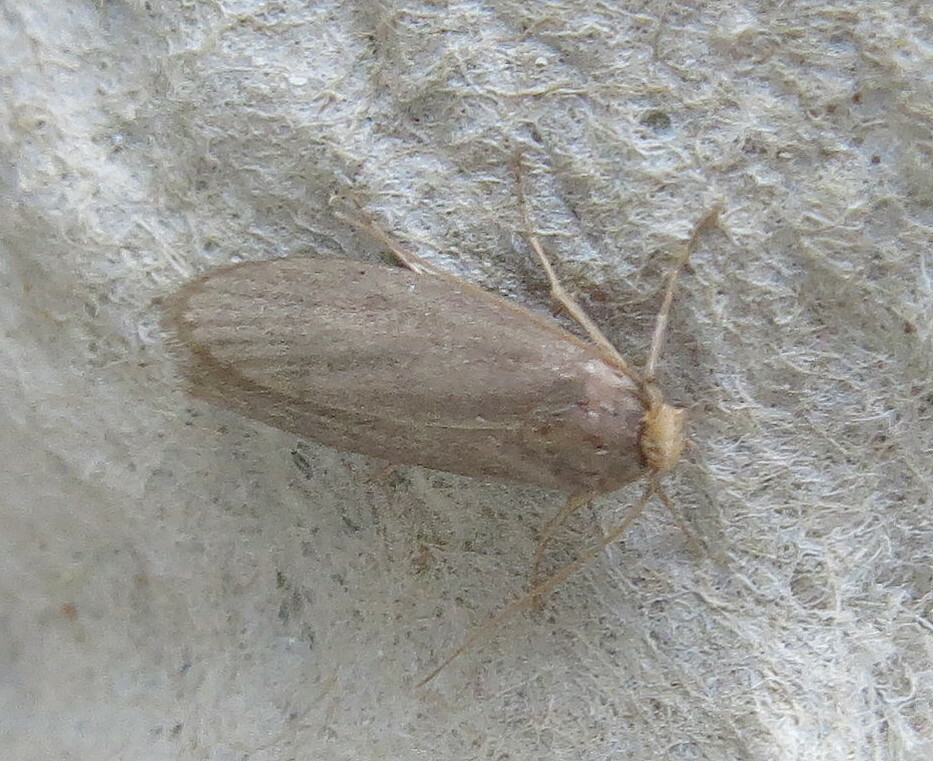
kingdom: Animalia
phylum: Arthropoda
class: Insecta
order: Lepidoptera
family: Pyralidae
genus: Achroia
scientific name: Achroia grisella
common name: Lesser wax moth
